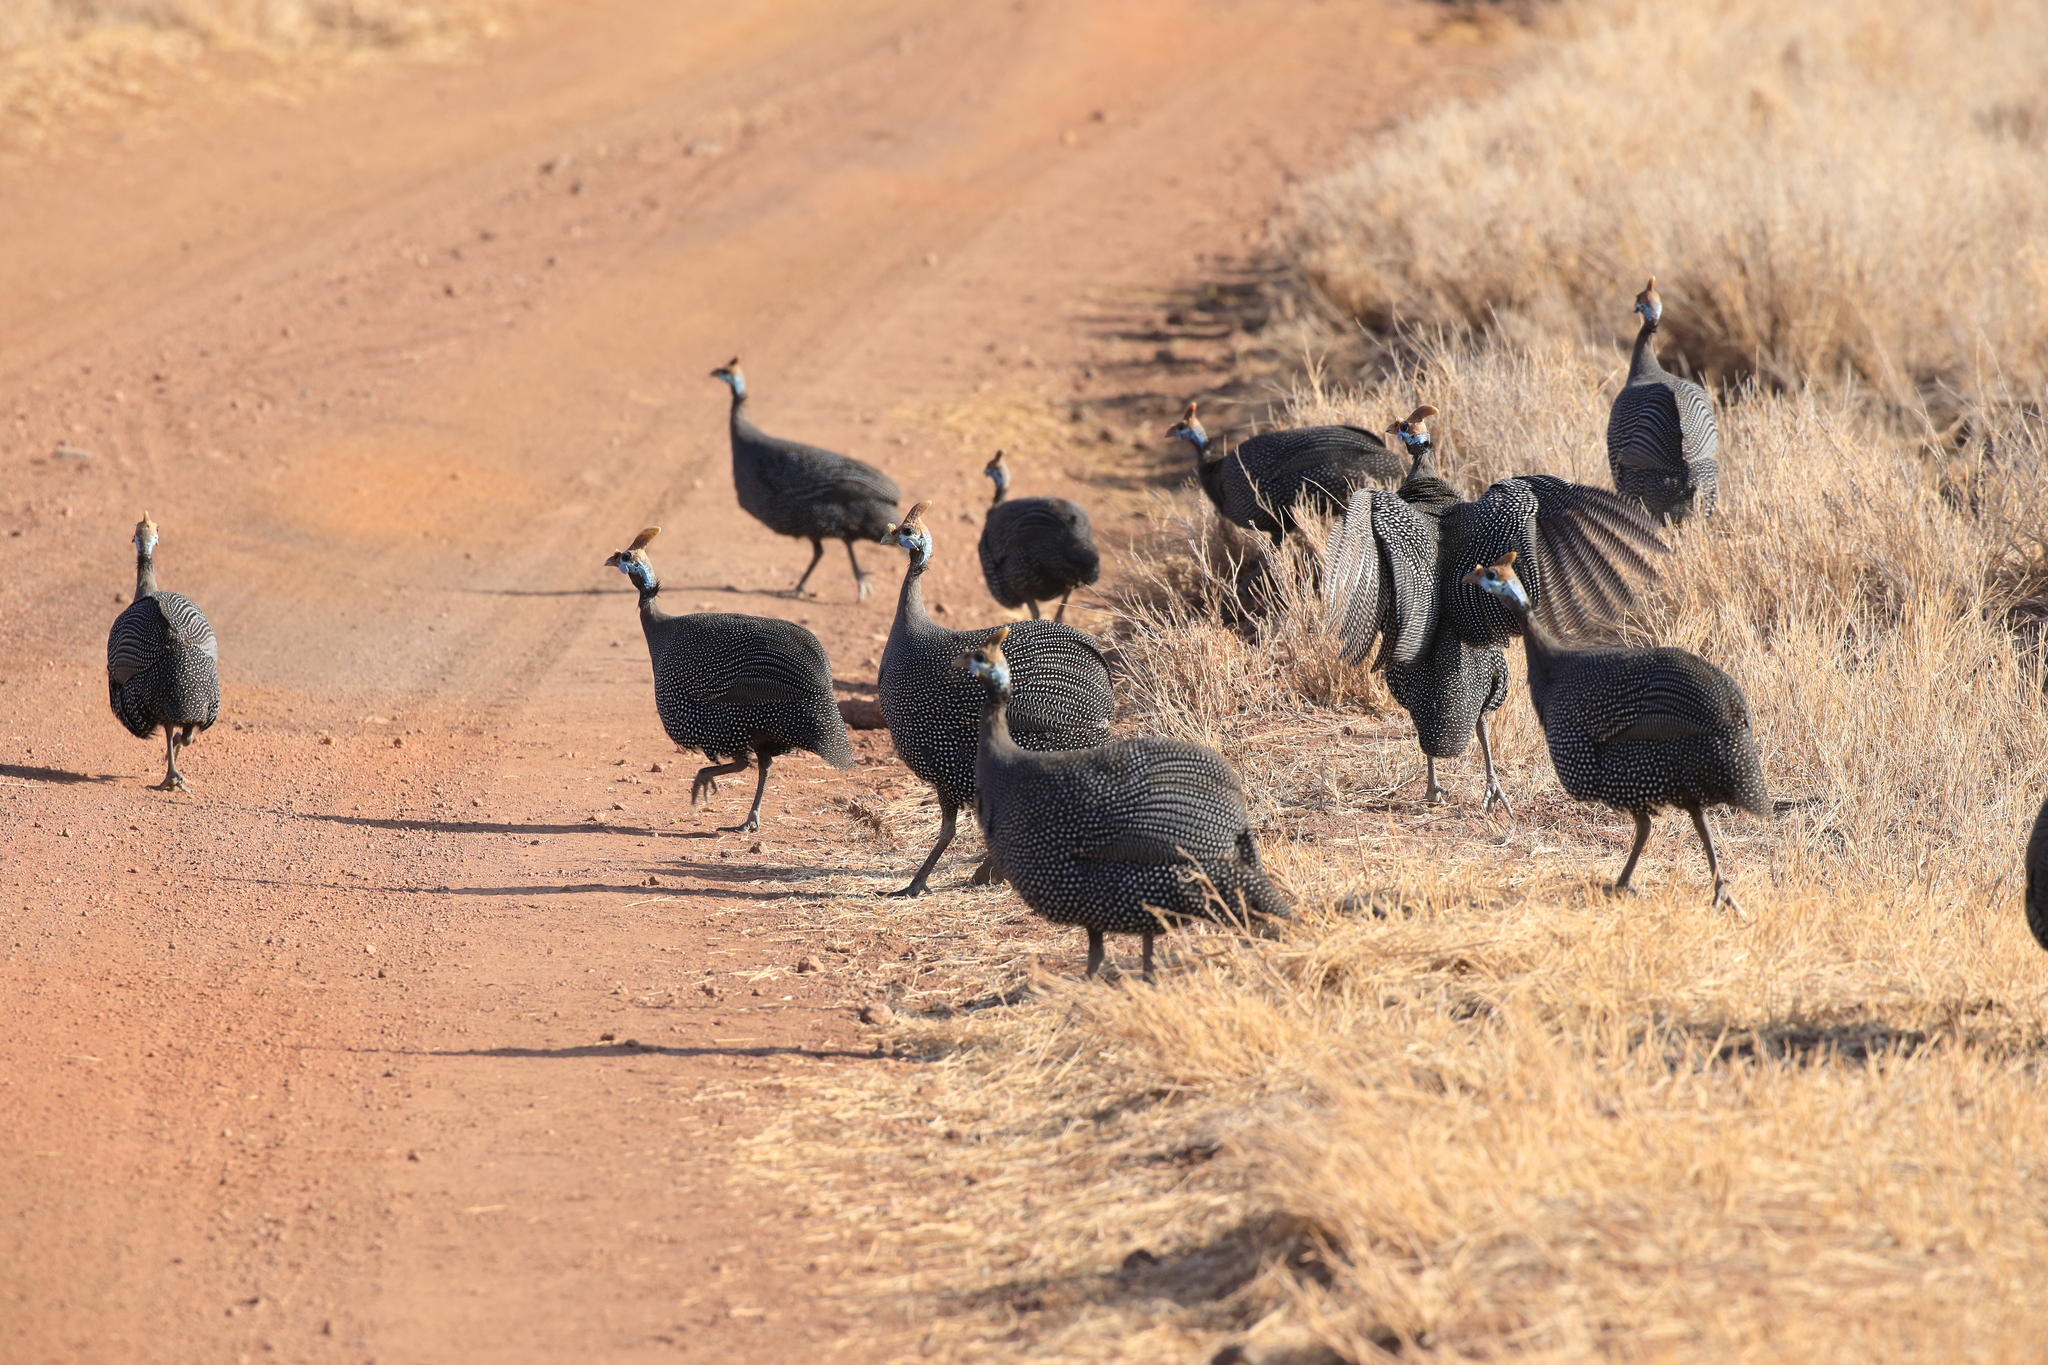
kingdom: Animalia
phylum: Chordata
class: Aves
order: Galliformes
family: Numididae
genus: Numida
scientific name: Numida meleagris
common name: Helmeted guineafowl
